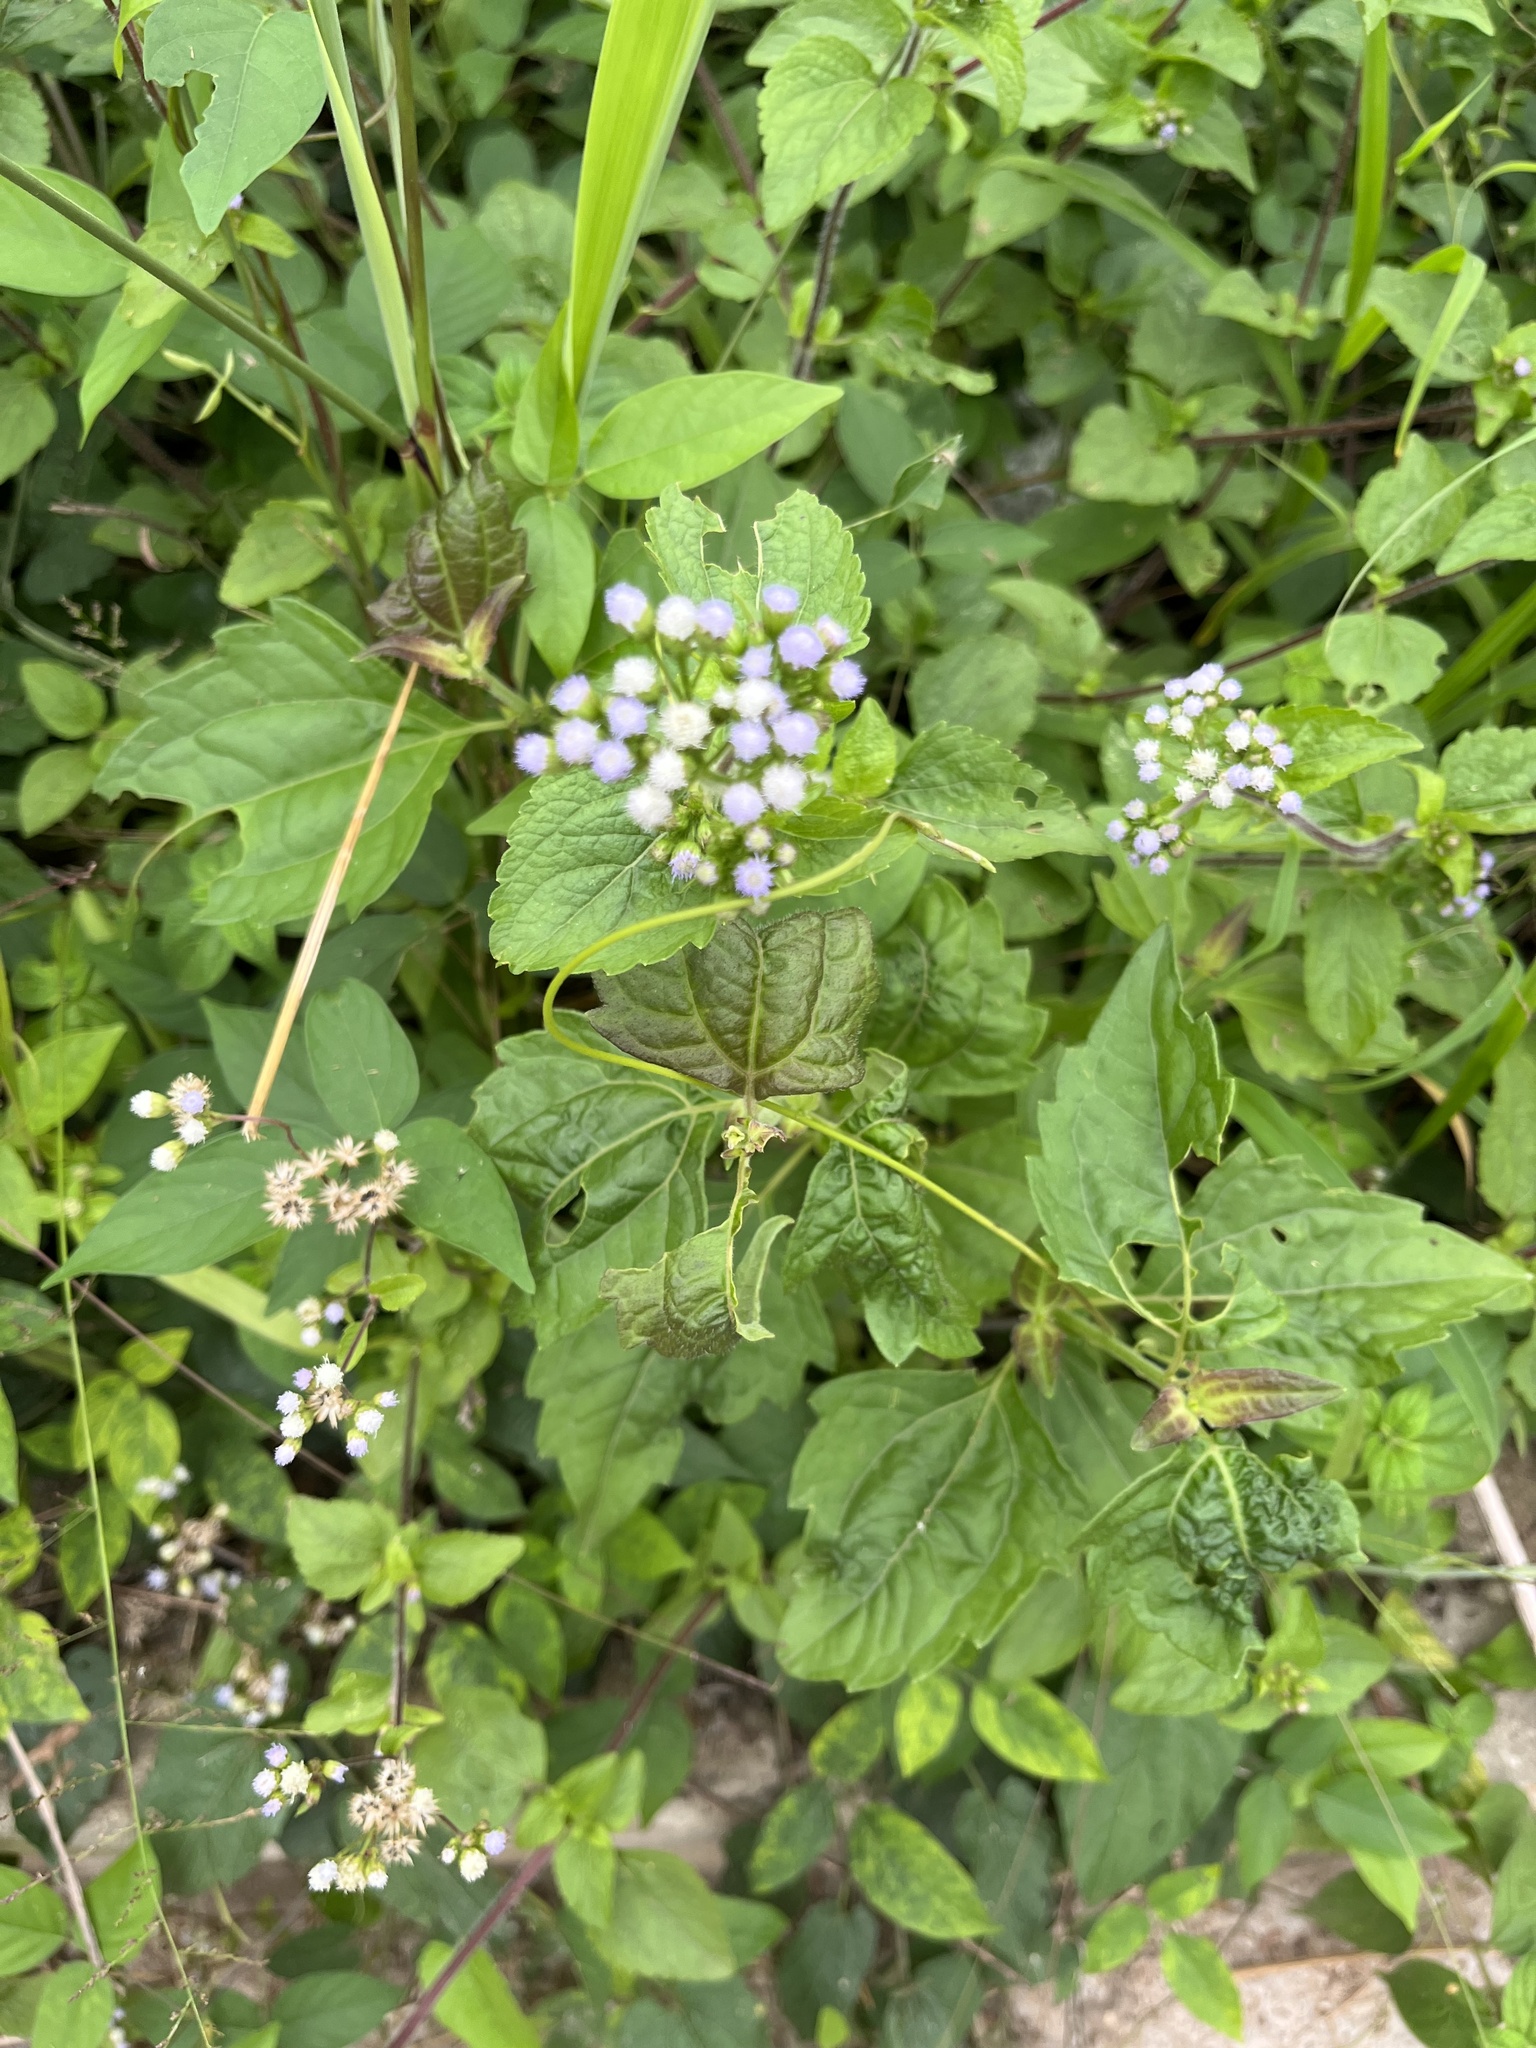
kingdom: Plantae
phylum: Tracheophyta
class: Magnoliopsida
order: Asterales
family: Asteraceae
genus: Ageratum
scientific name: Ageratum conyzoides
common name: Tropical whiteweed
